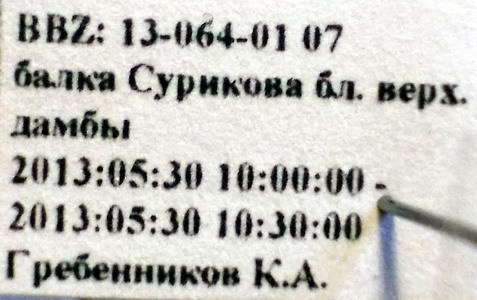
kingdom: Animalia
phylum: Arthropoda
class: Insecta
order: Hemiptera
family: Lygaeidae
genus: Lygaeosoma
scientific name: Lygaeosoma sardeum
